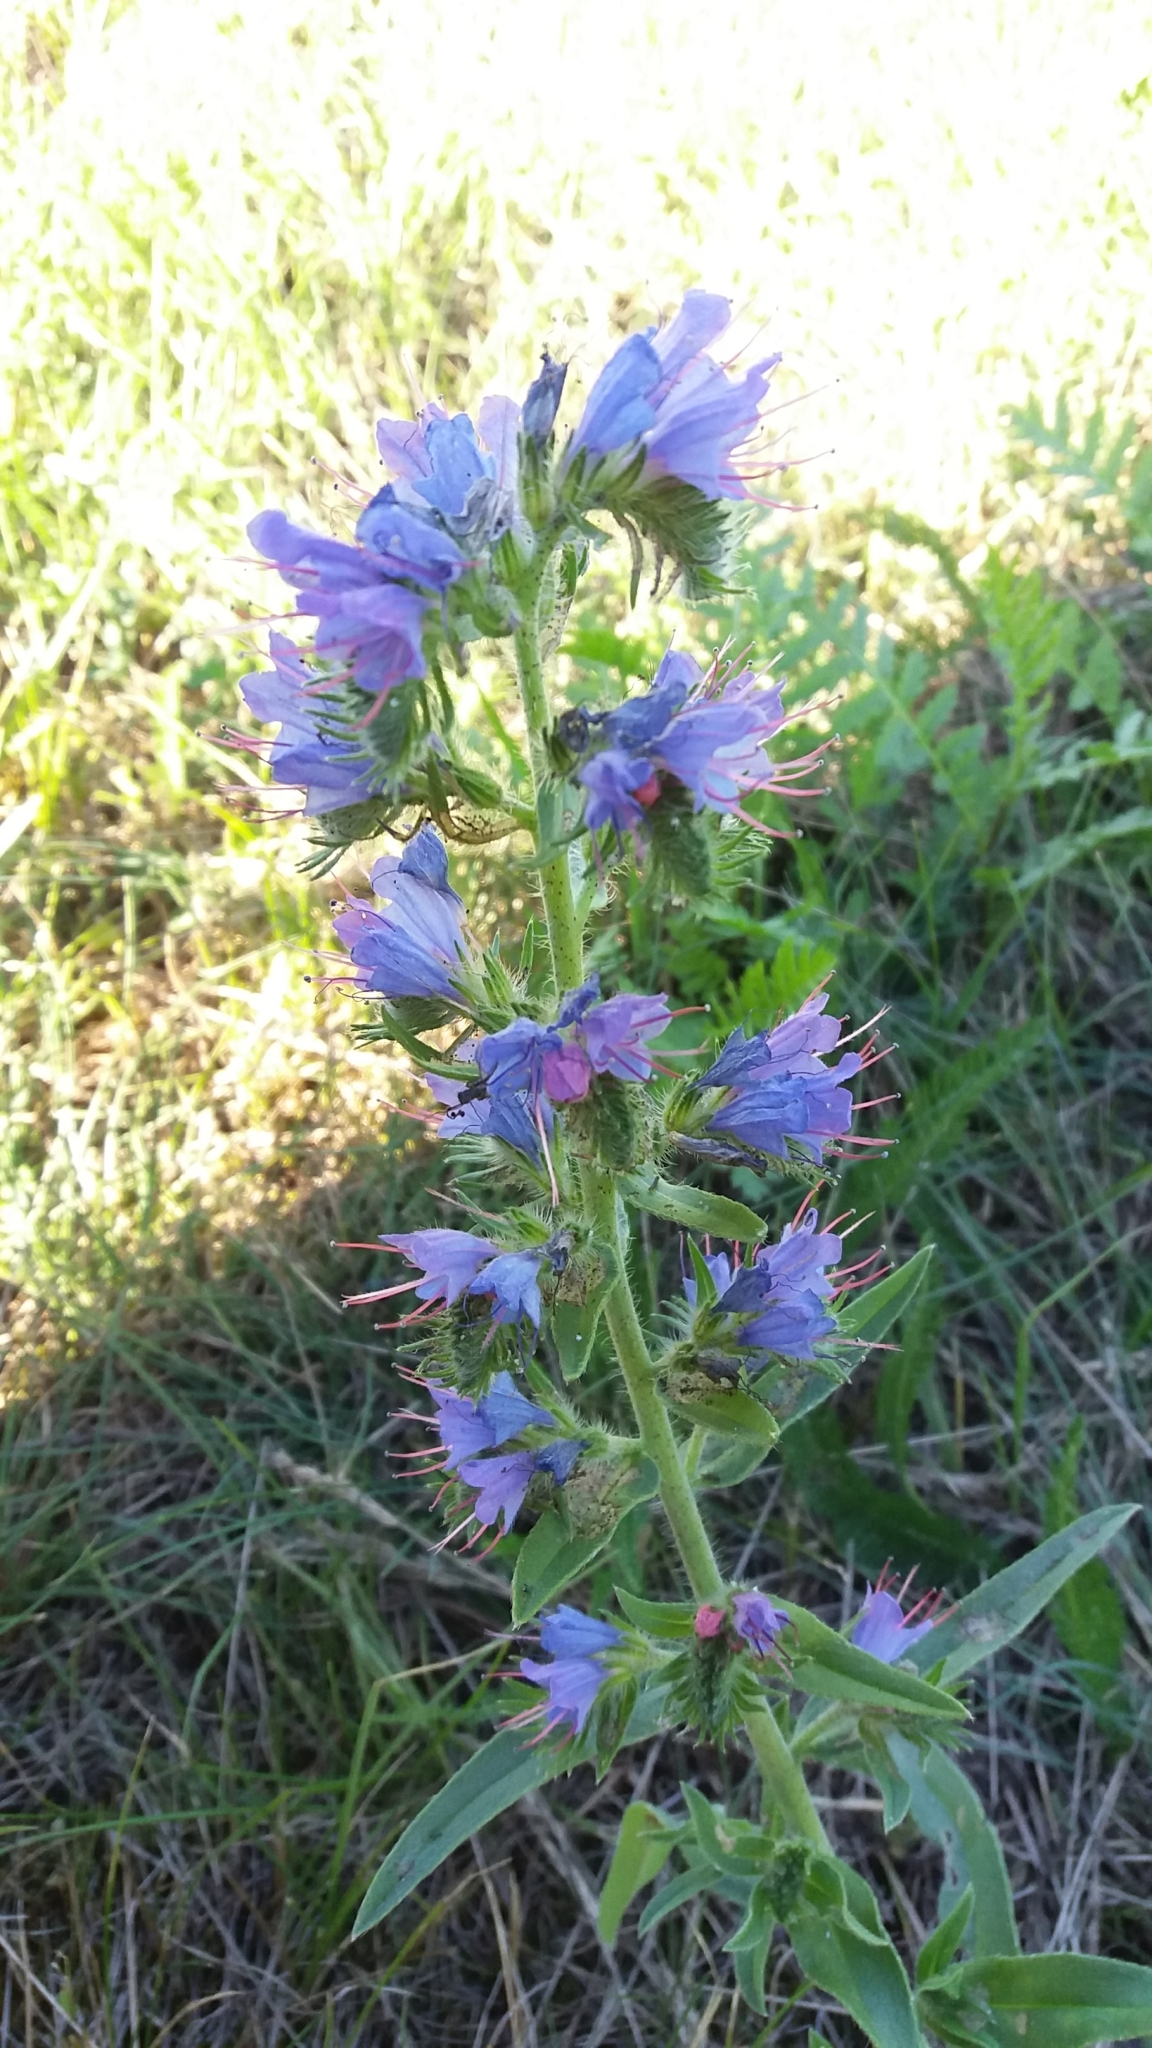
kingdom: Plantae
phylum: Tracheophyta
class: Magnoliopsida
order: Boraginales
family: Boraginaceae
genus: Echium
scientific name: Echium vulgare
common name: Common viper's bugloss
